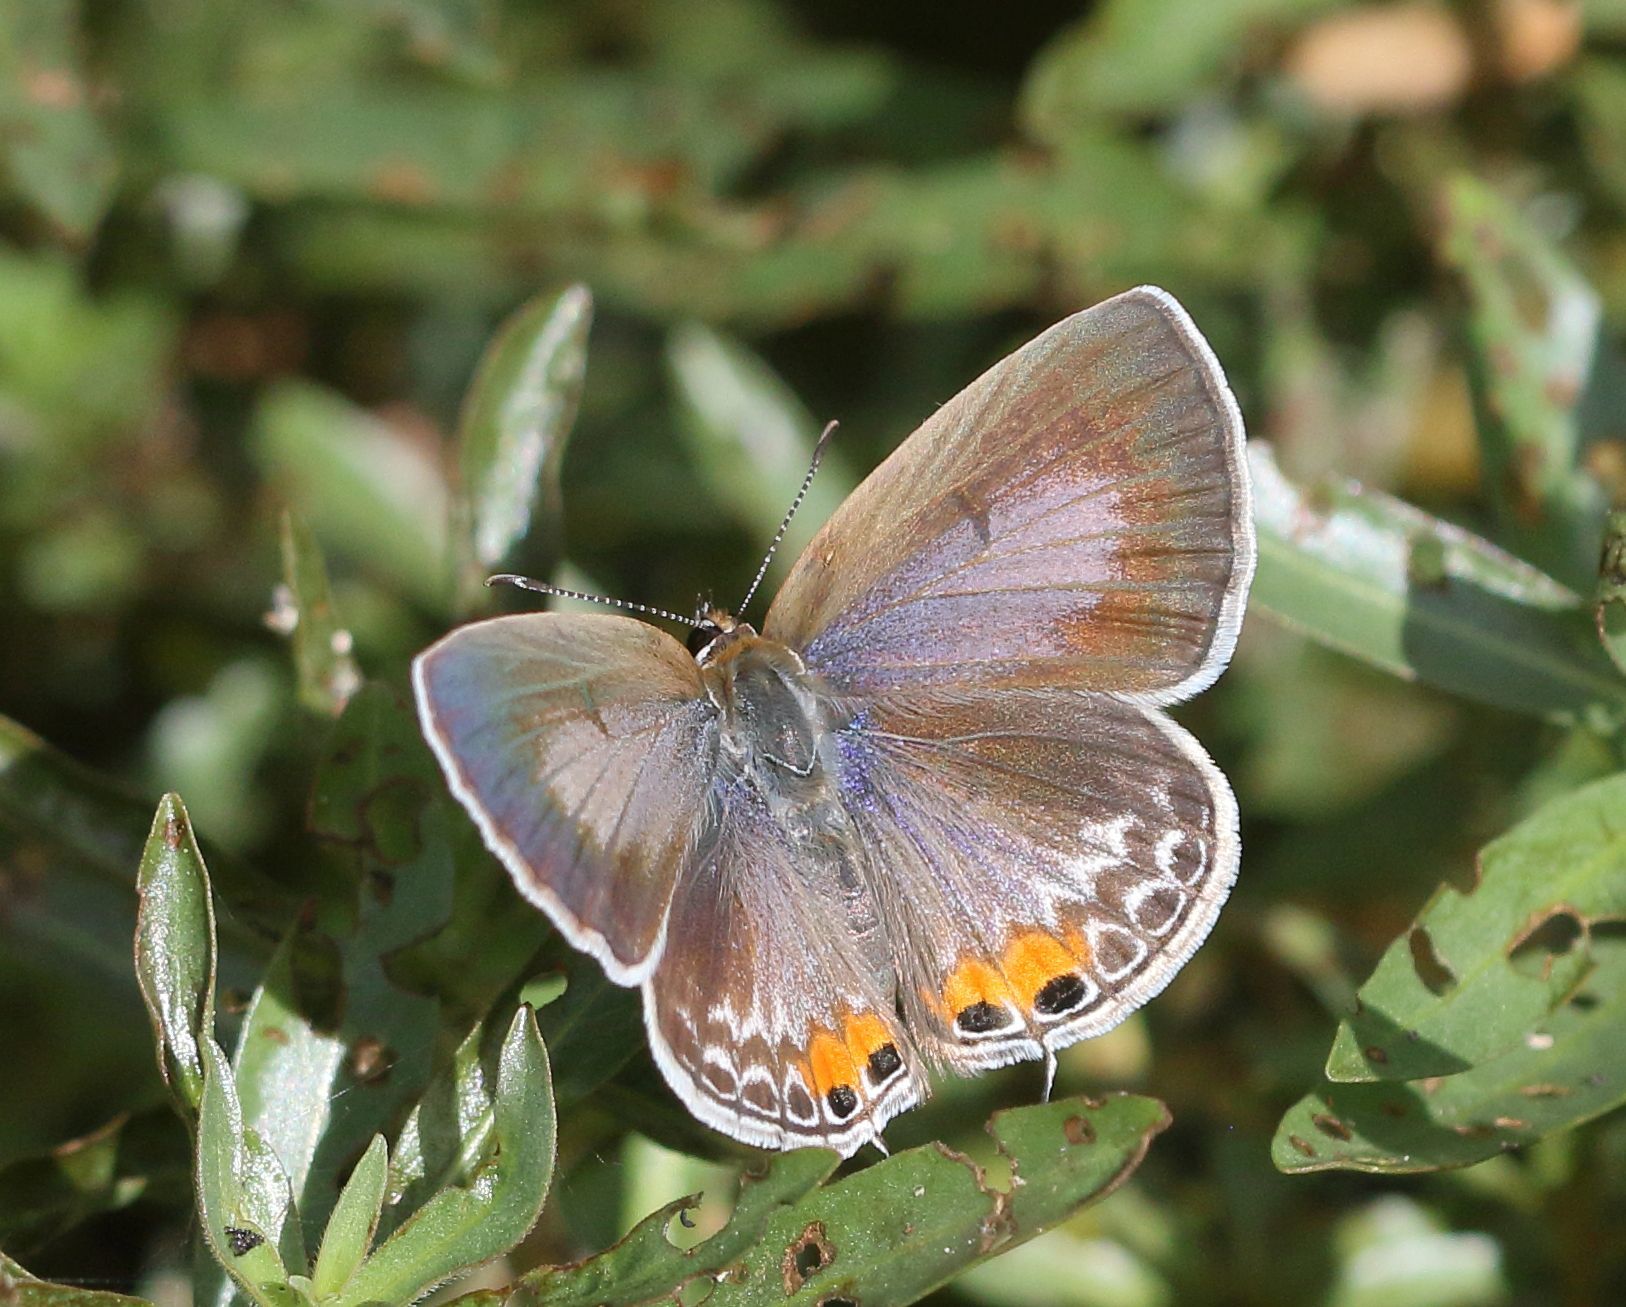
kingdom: Animalia
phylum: Arthropoda
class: Insecta
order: Lepidoptera
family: Lycaenidae
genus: Euchrysops
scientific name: Euchrysops osiris
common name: African blue
